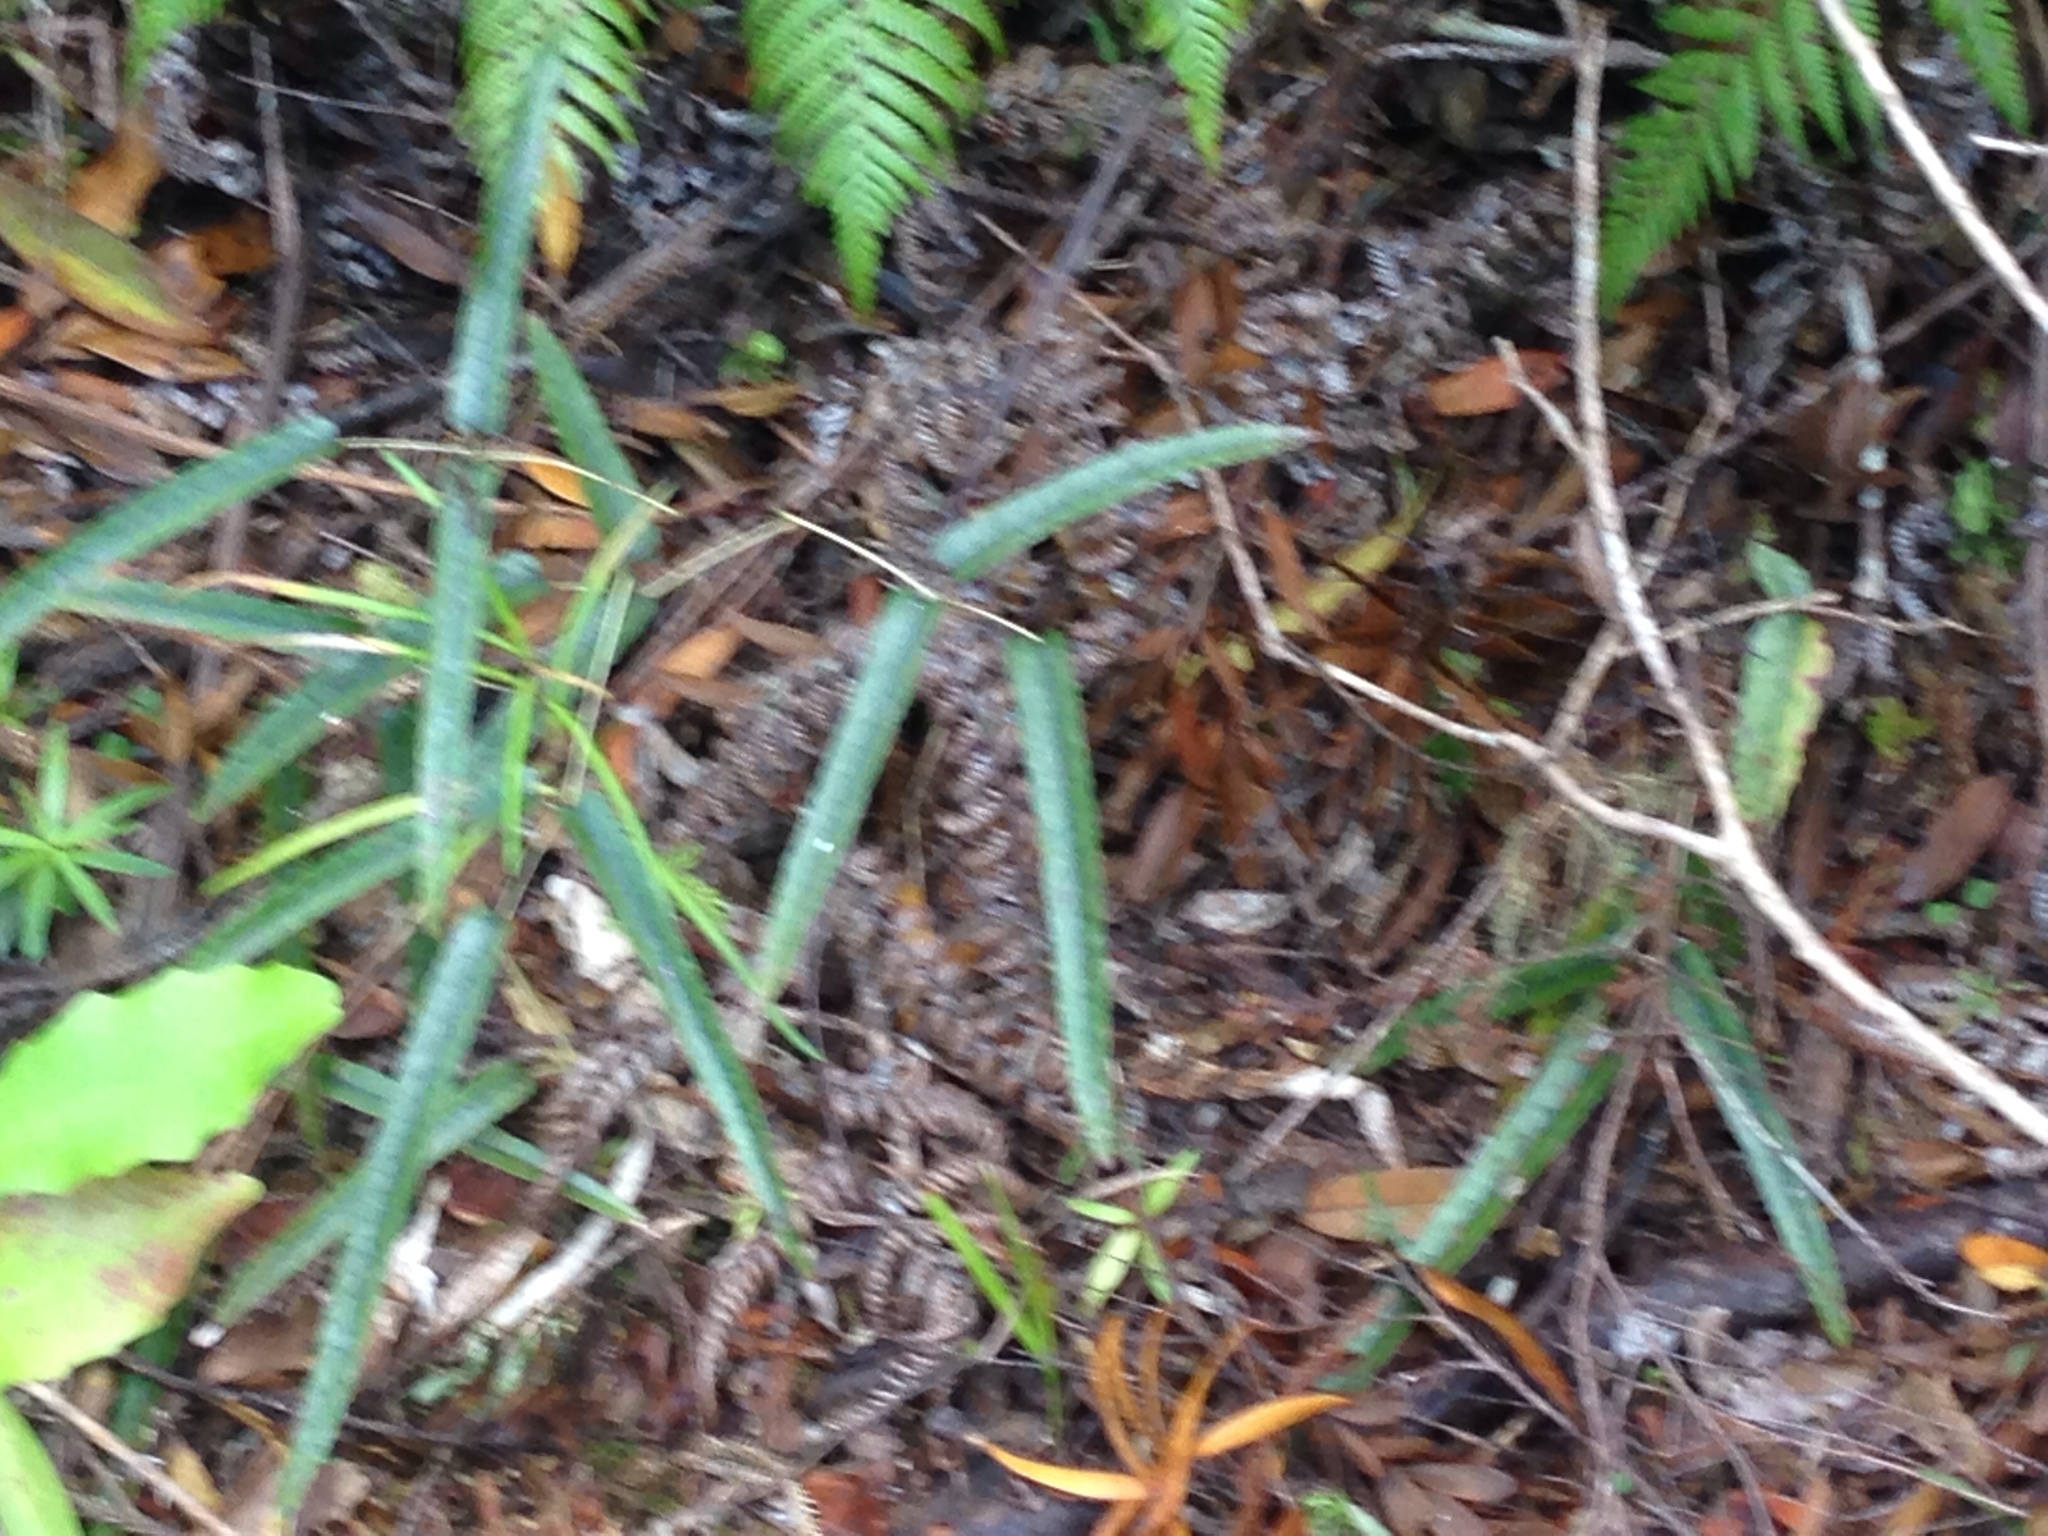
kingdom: Plantae
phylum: Tracheophyta
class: Magnoliopsida
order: Rosales
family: Rosaceae
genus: Rubus
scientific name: Rubus cissoides
